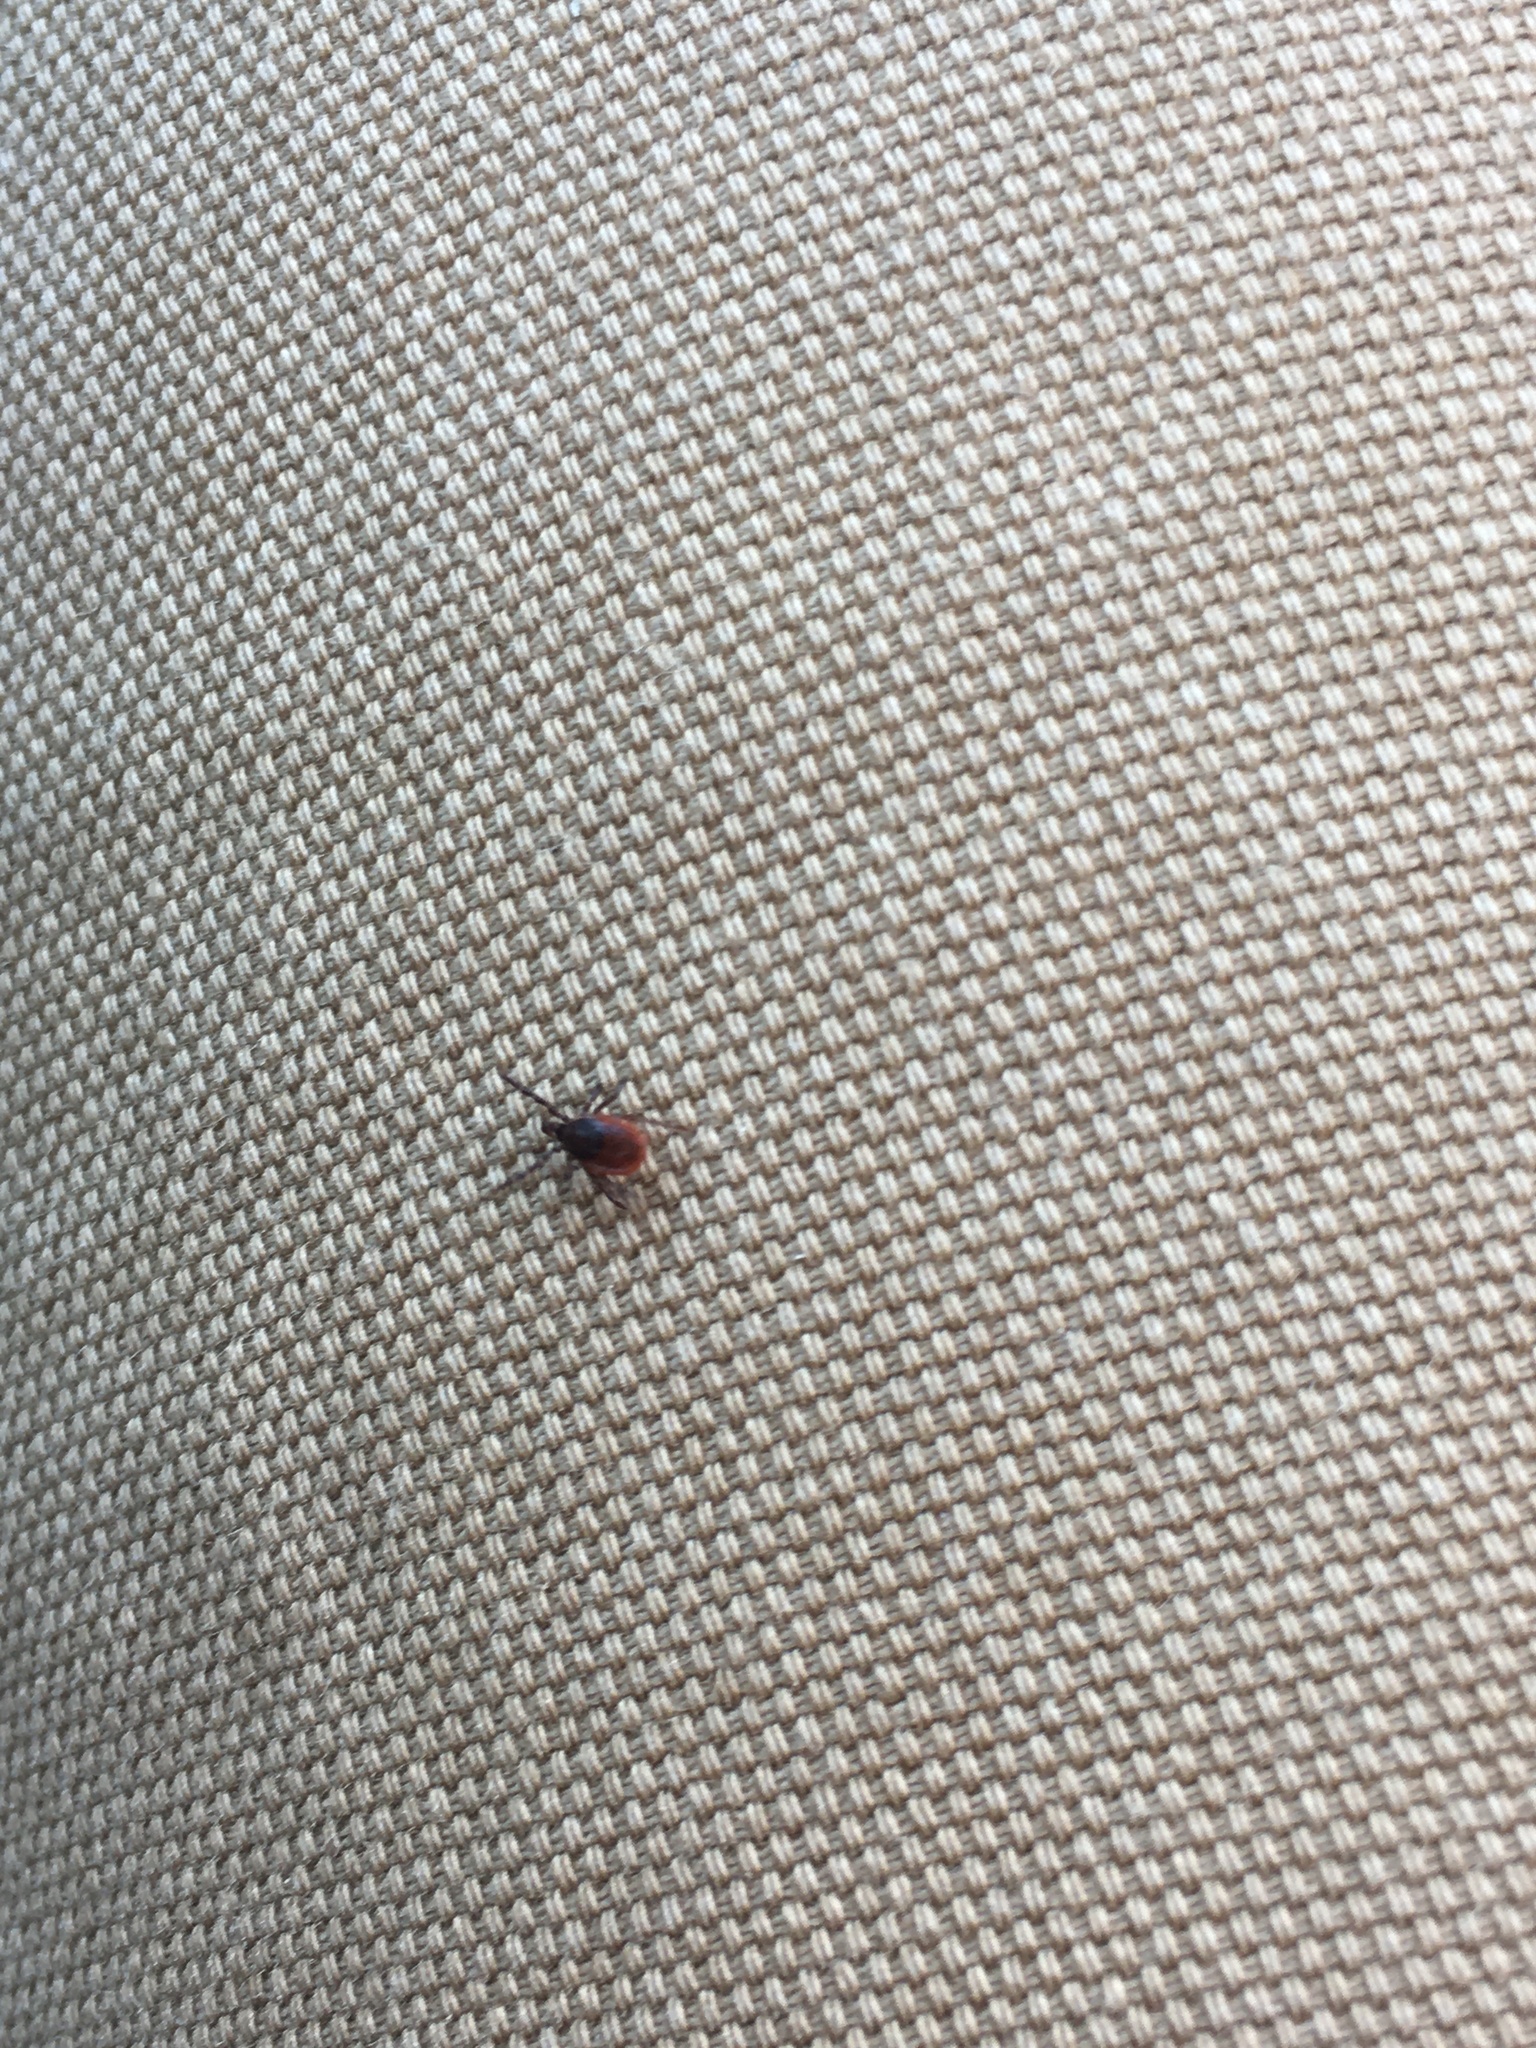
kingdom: Animalia
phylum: Arthropoda
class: Arachnida
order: Ixodida
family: Ixodidae
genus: Ixodes
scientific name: Ixodes scapularis
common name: Black legged tick
